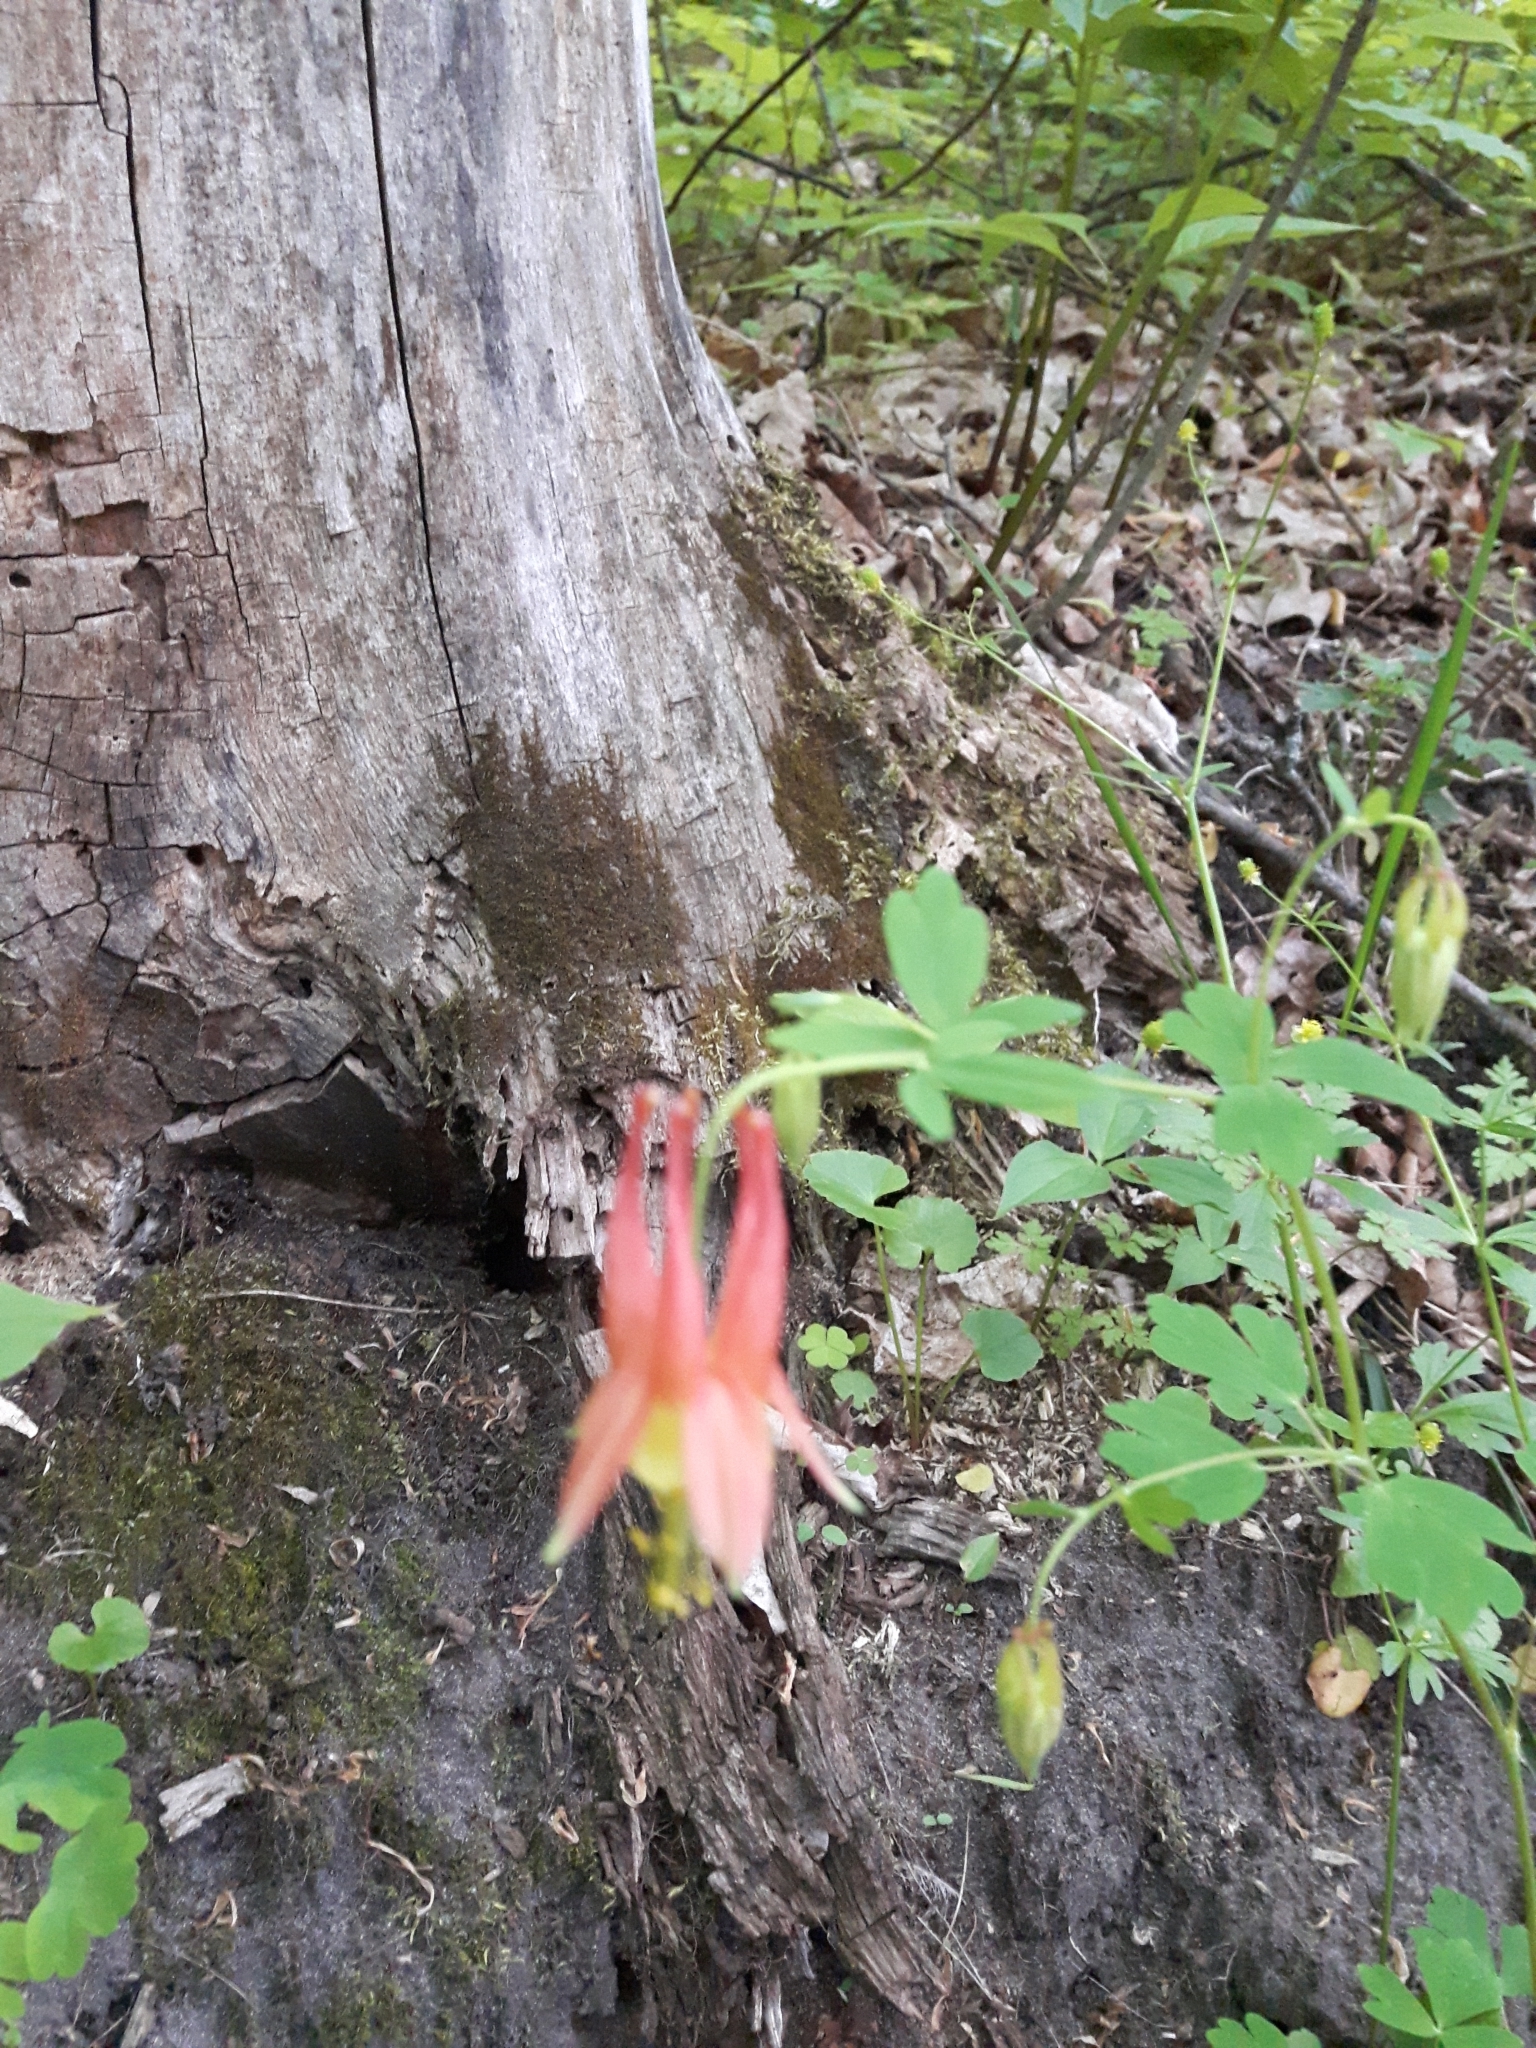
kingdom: Plantae
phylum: Tracheophyta
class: Magnoliopsida
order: Ranunculales
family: Ranunculaceae
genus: Aquilegia
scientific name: Aquilegia canadensis
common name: American columbine
